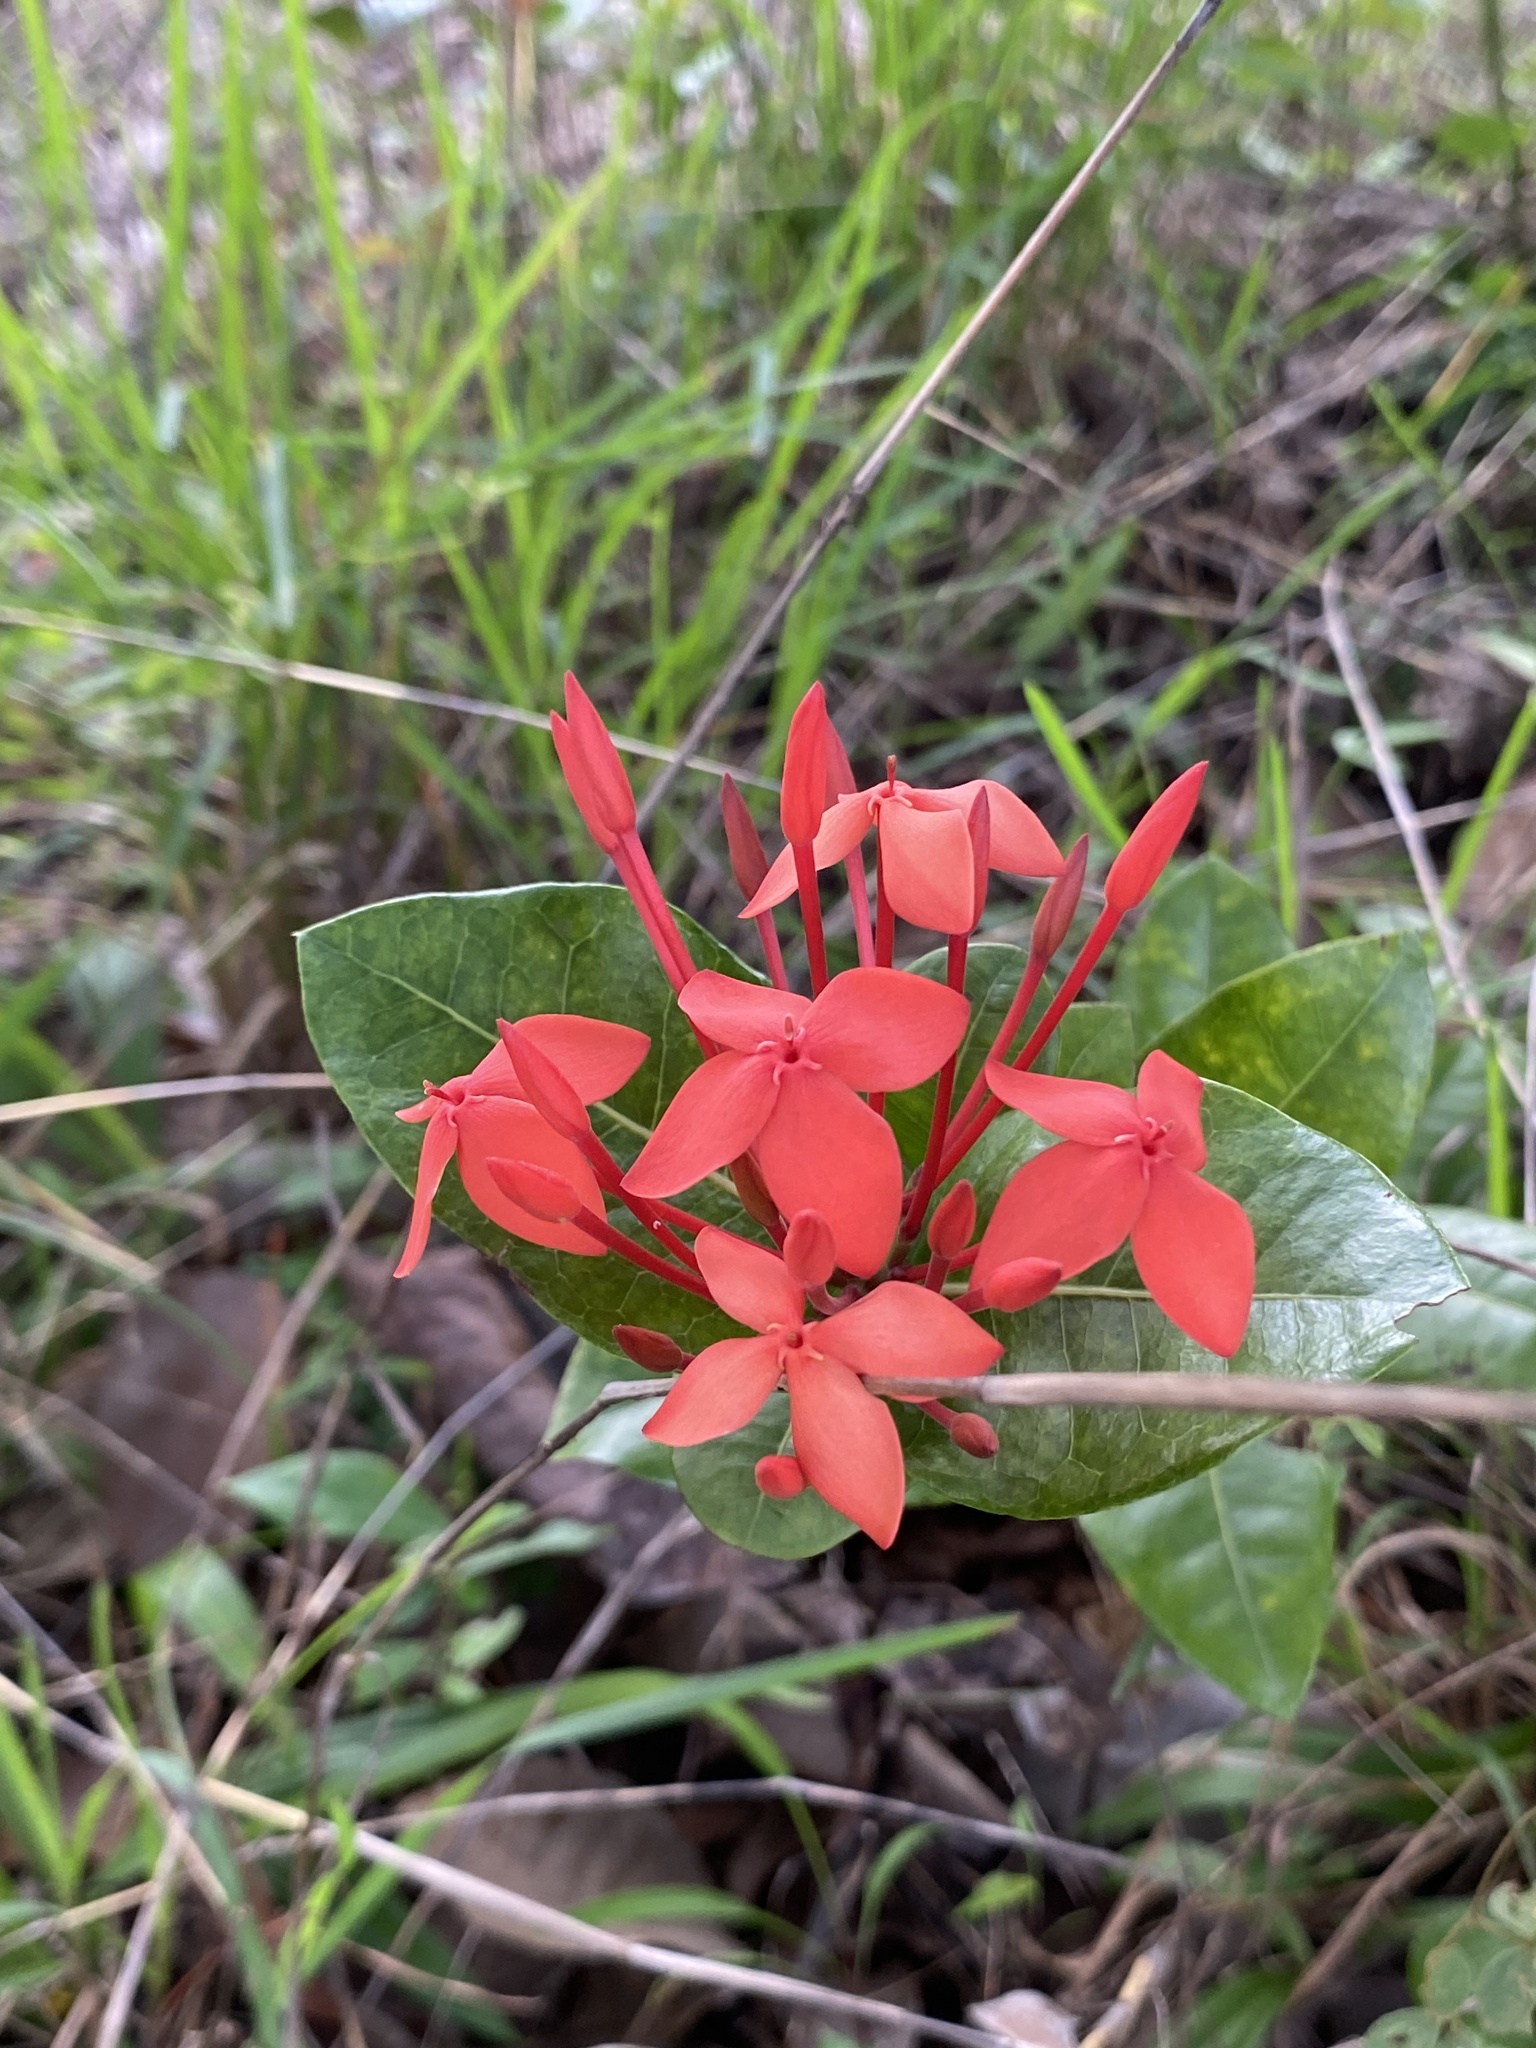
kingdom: Plantae
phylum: Tracheophyta
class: Magnoliopsida
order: Gentianales
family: Rubiaceae
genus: Ixora
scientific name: Ixora coccinea
